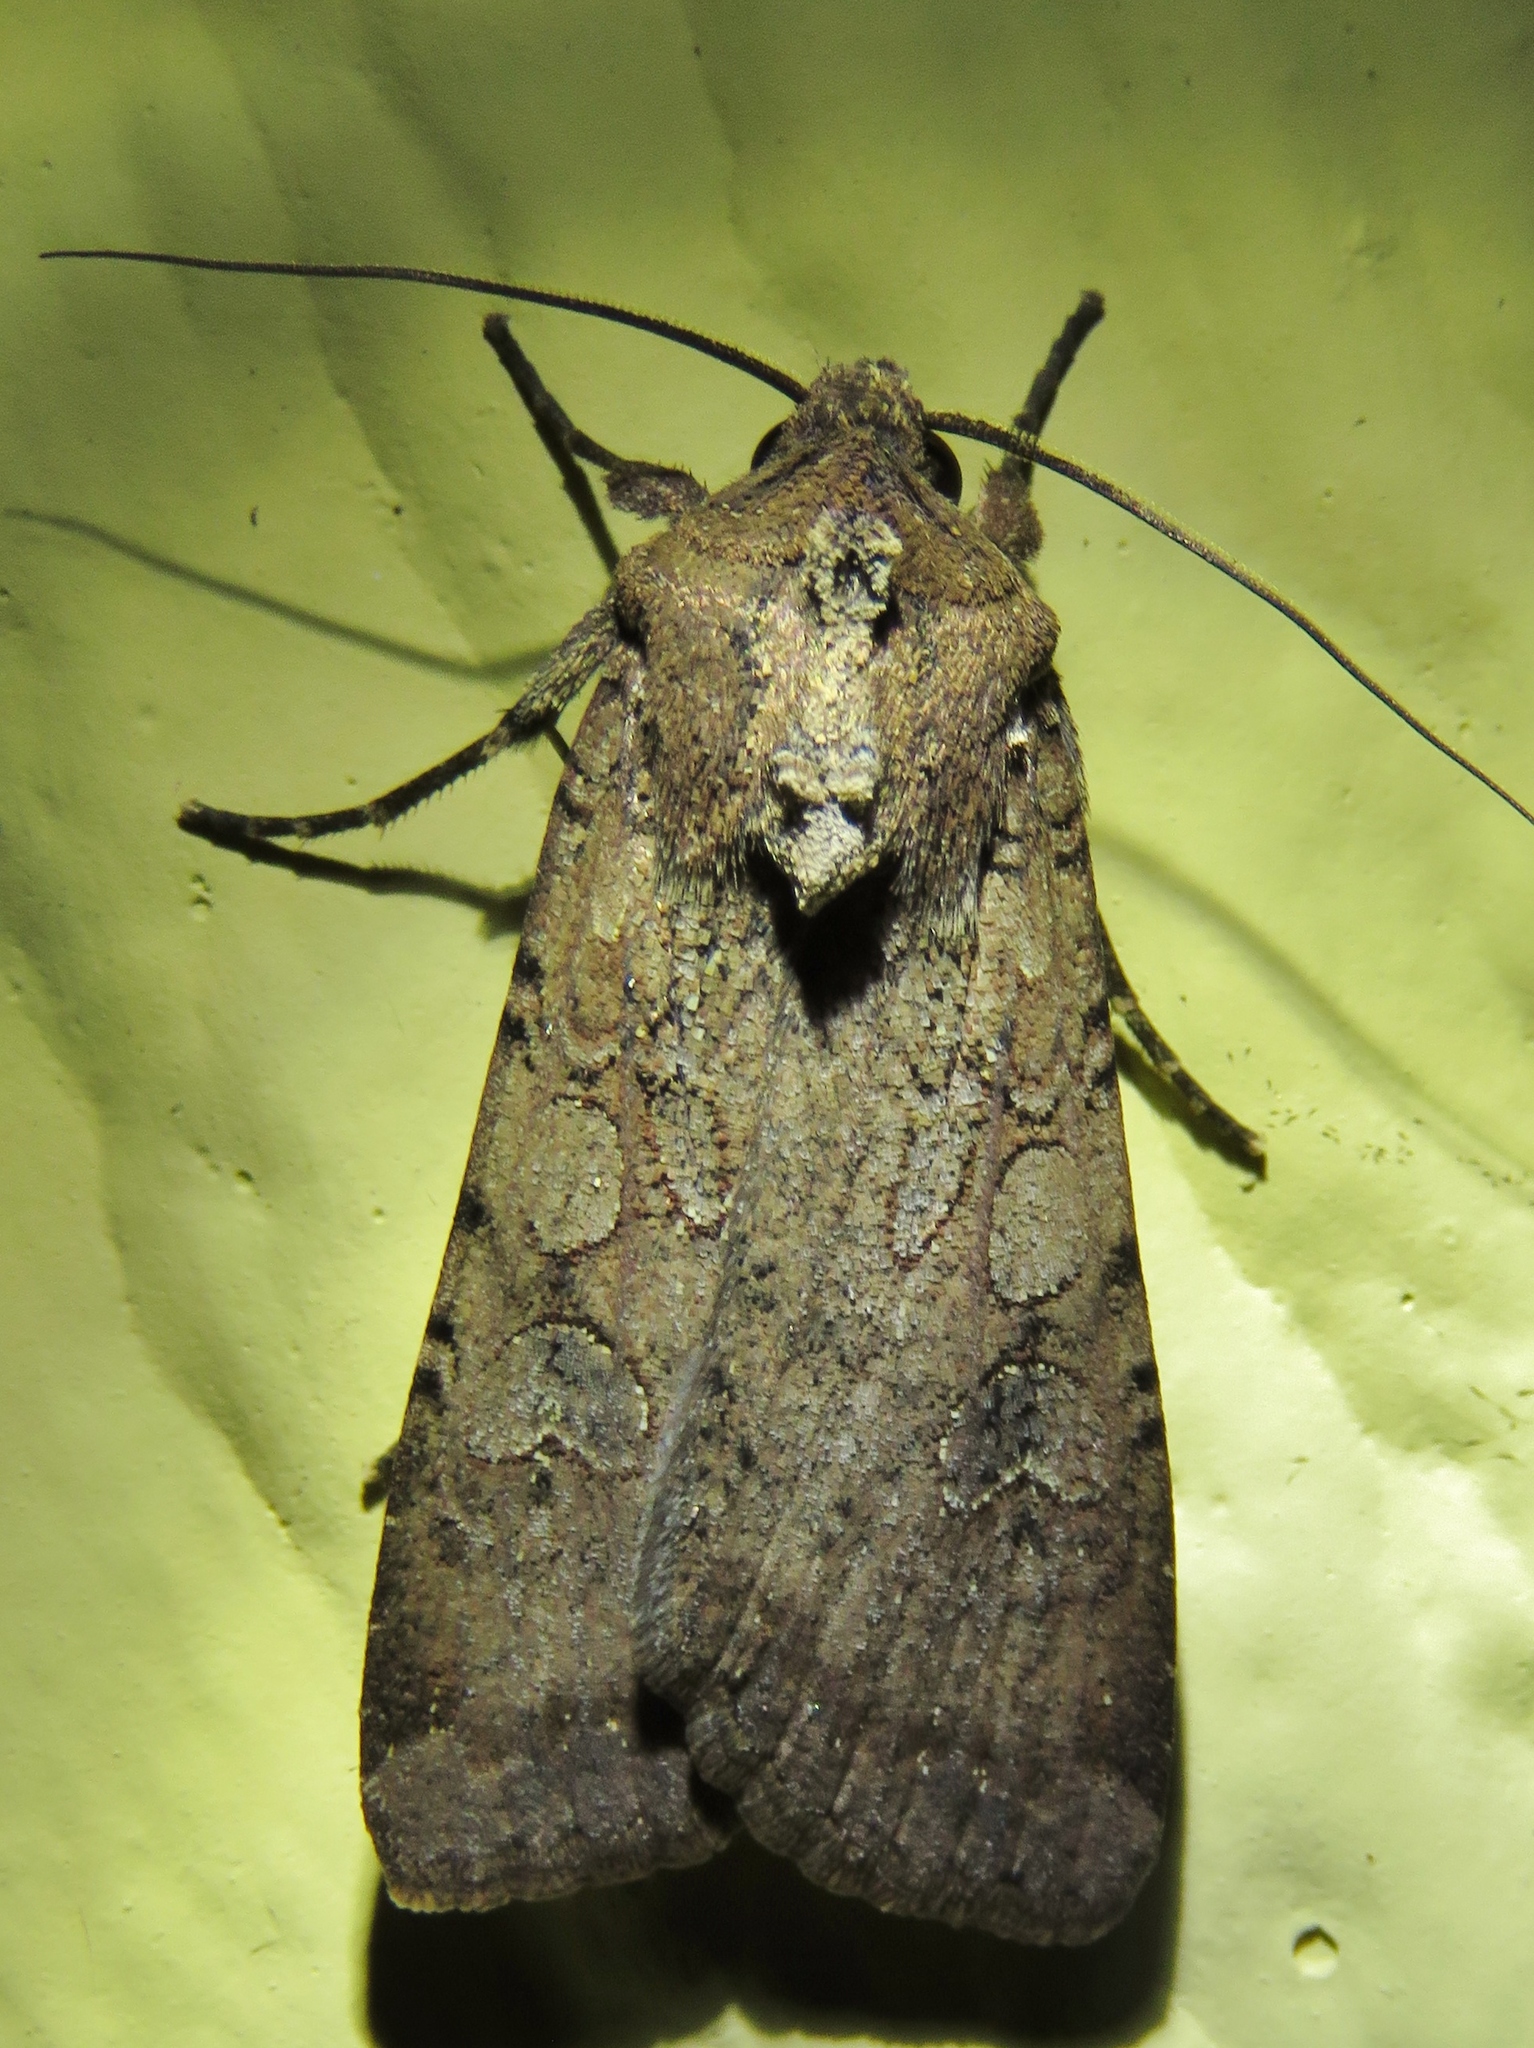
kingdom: Animalia
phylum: Arthropoda
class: Insecta
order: Lepidoptera
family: Noctuidae
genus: Peridroma
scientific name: Peridroma saucia
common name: Pearly underwing
